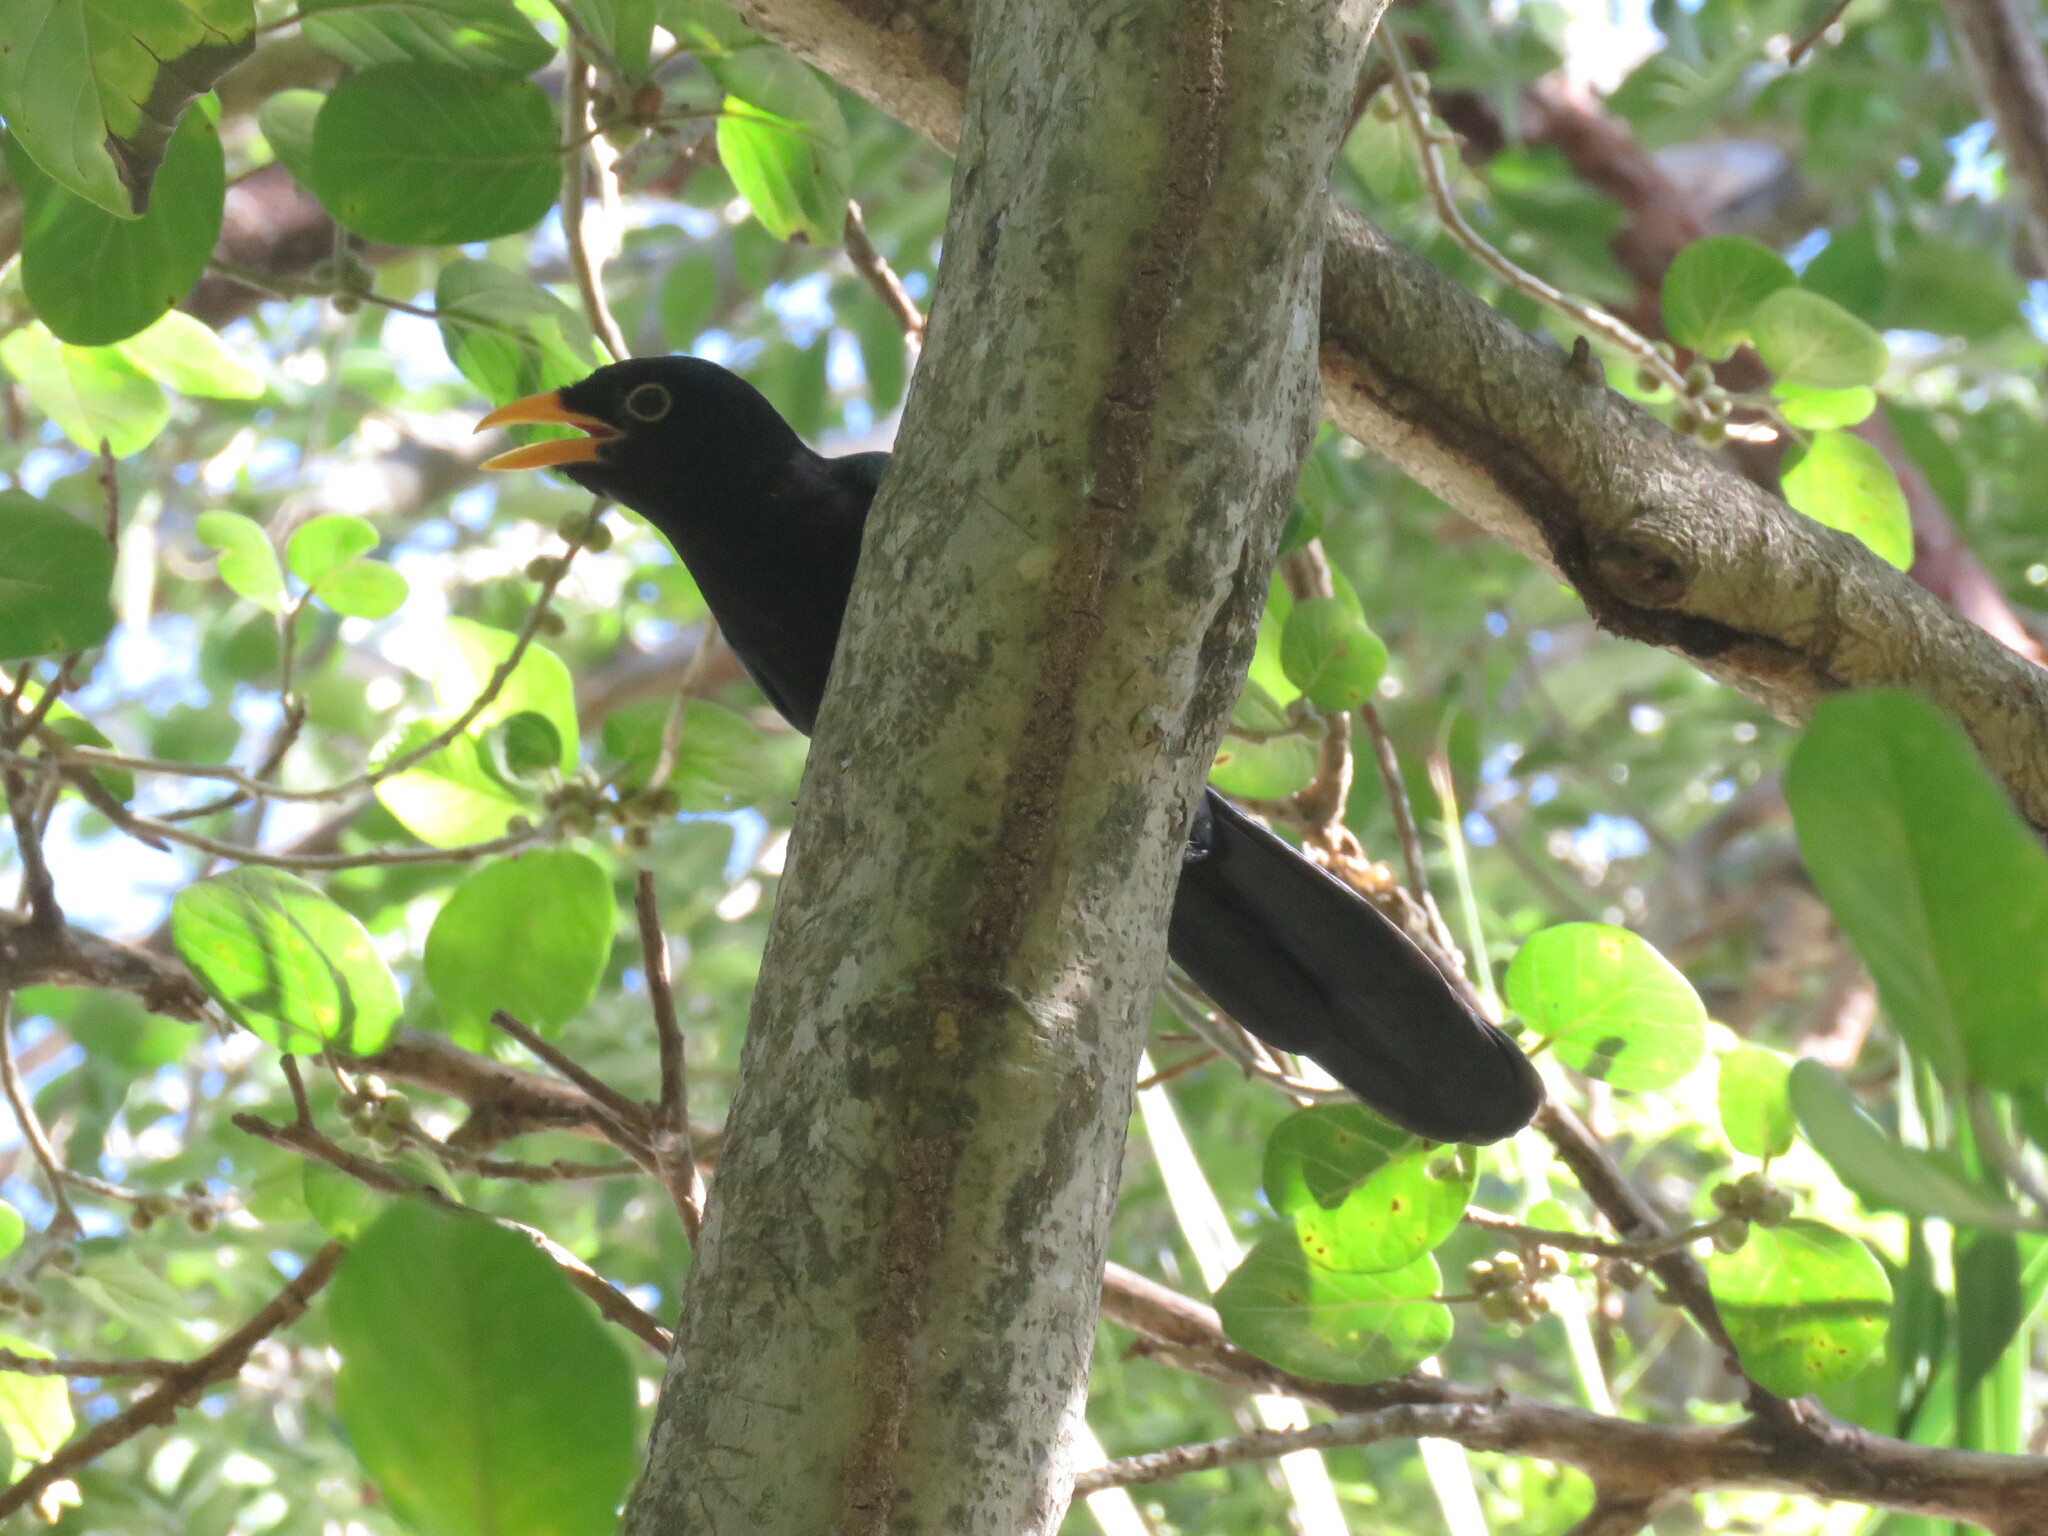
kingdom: Animalia
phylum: Chordata
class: Aves
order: Passeriformes
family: Corvidae
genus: Cyanocorax
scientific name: Cyanocorax yucatanicus
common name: Yucatan jay
